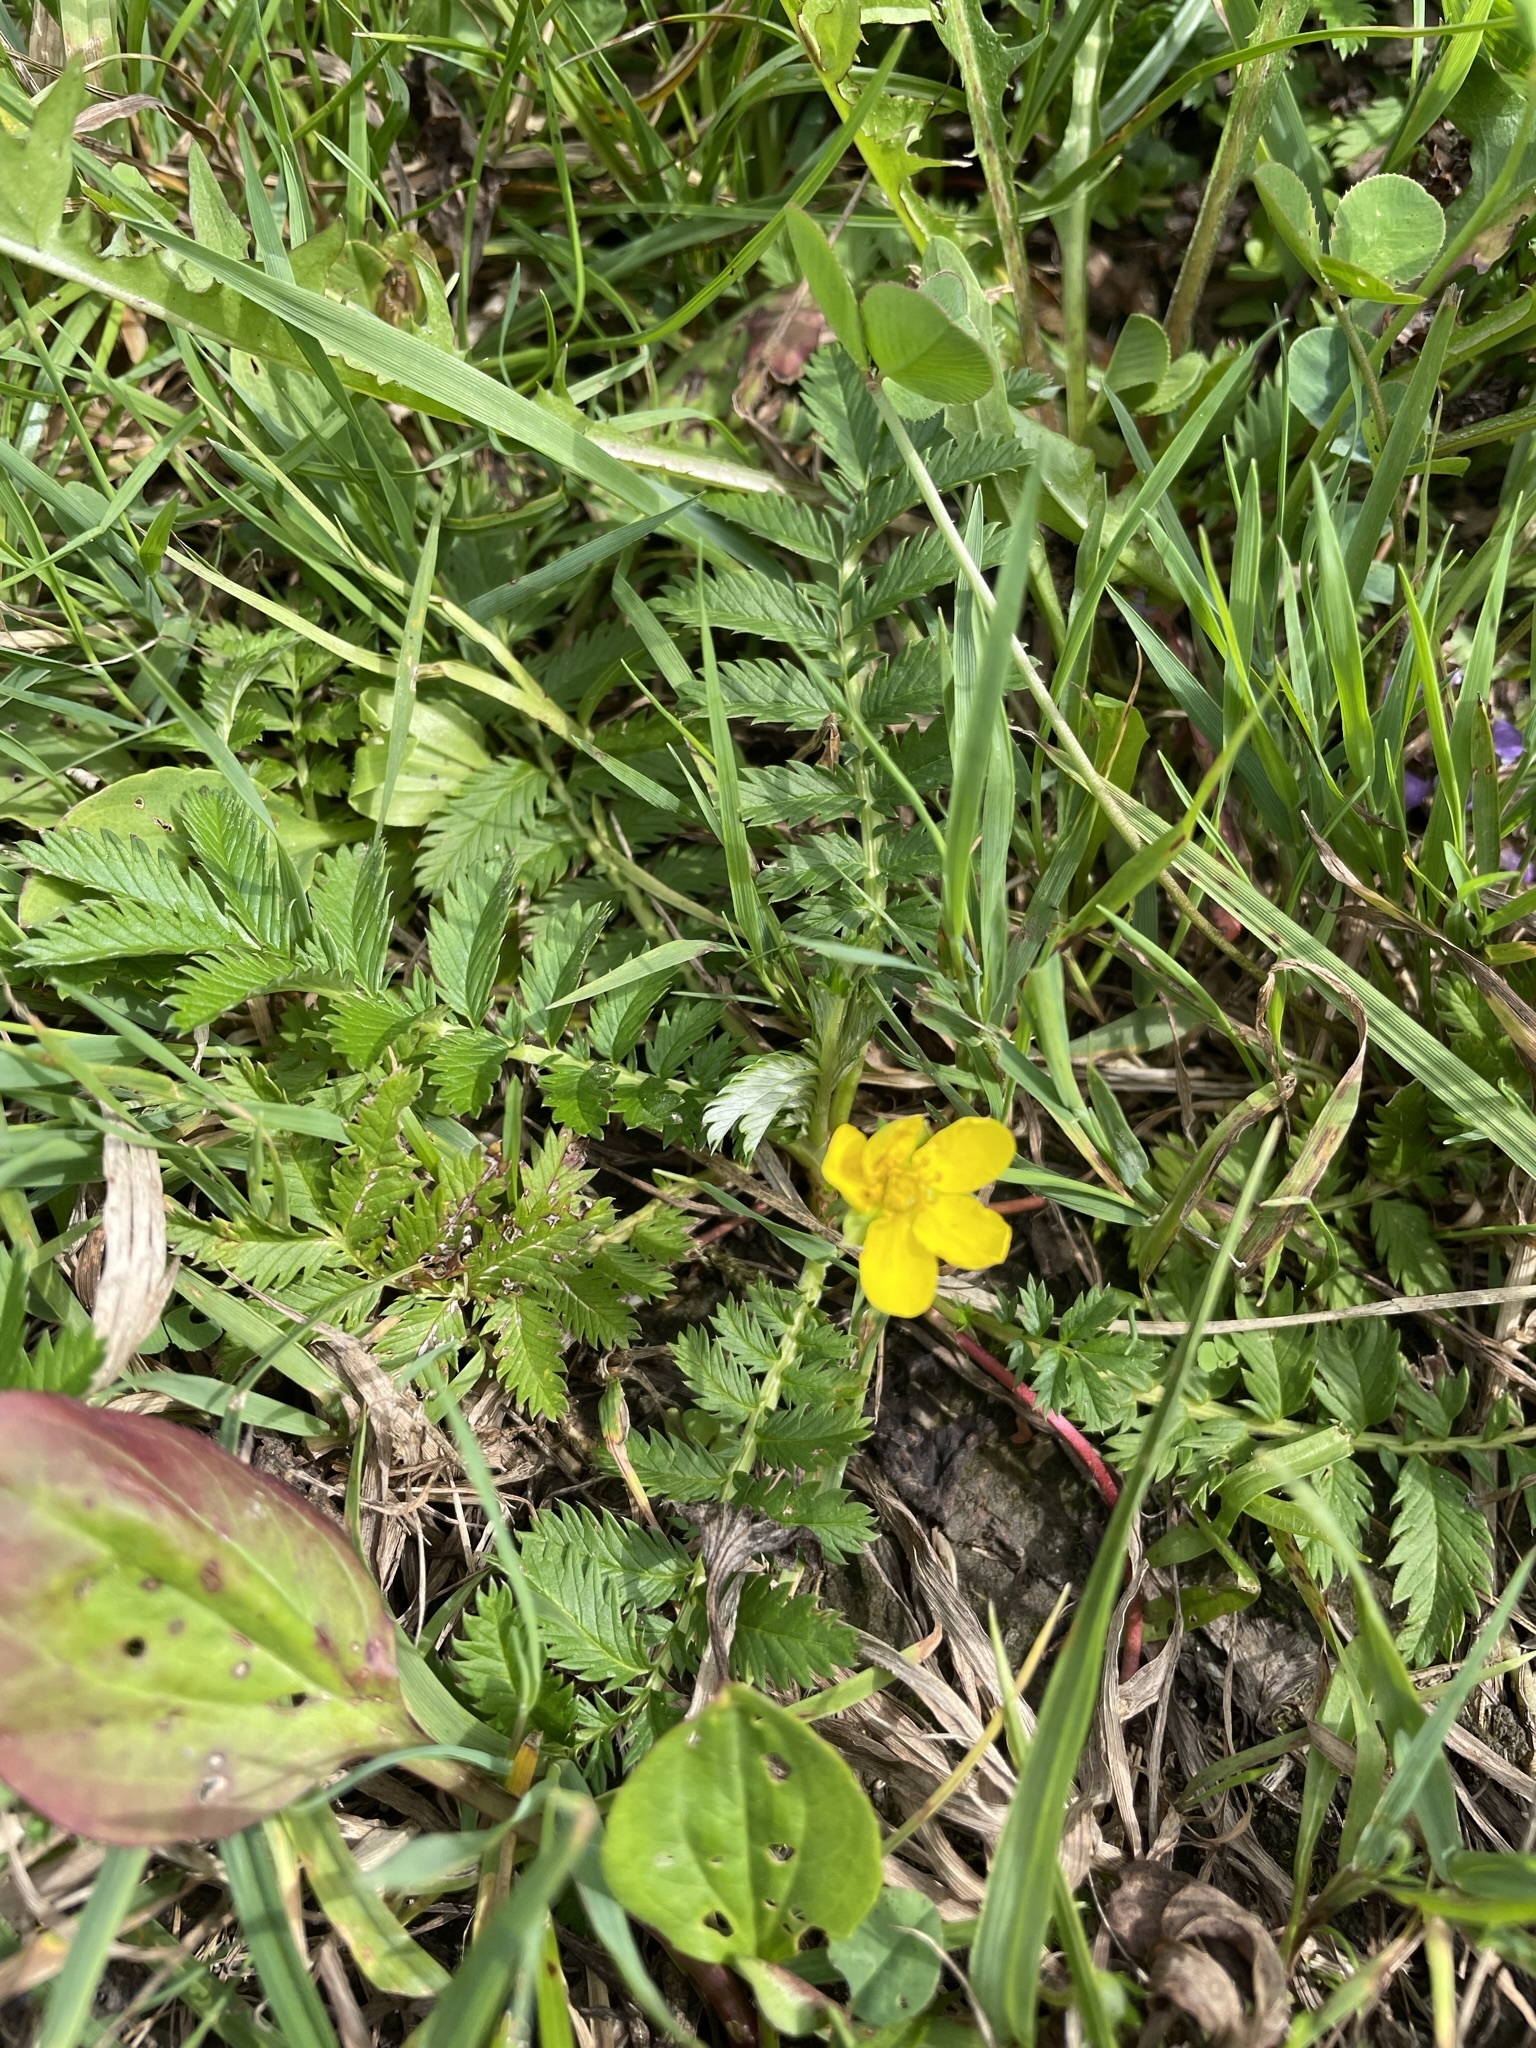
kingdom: Plantae
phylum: Tracheophyta
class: Magnoliopsida
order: Rosales
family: Rosaceae
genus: Argentina
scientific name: Argentina anserina
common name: Common silverweed
